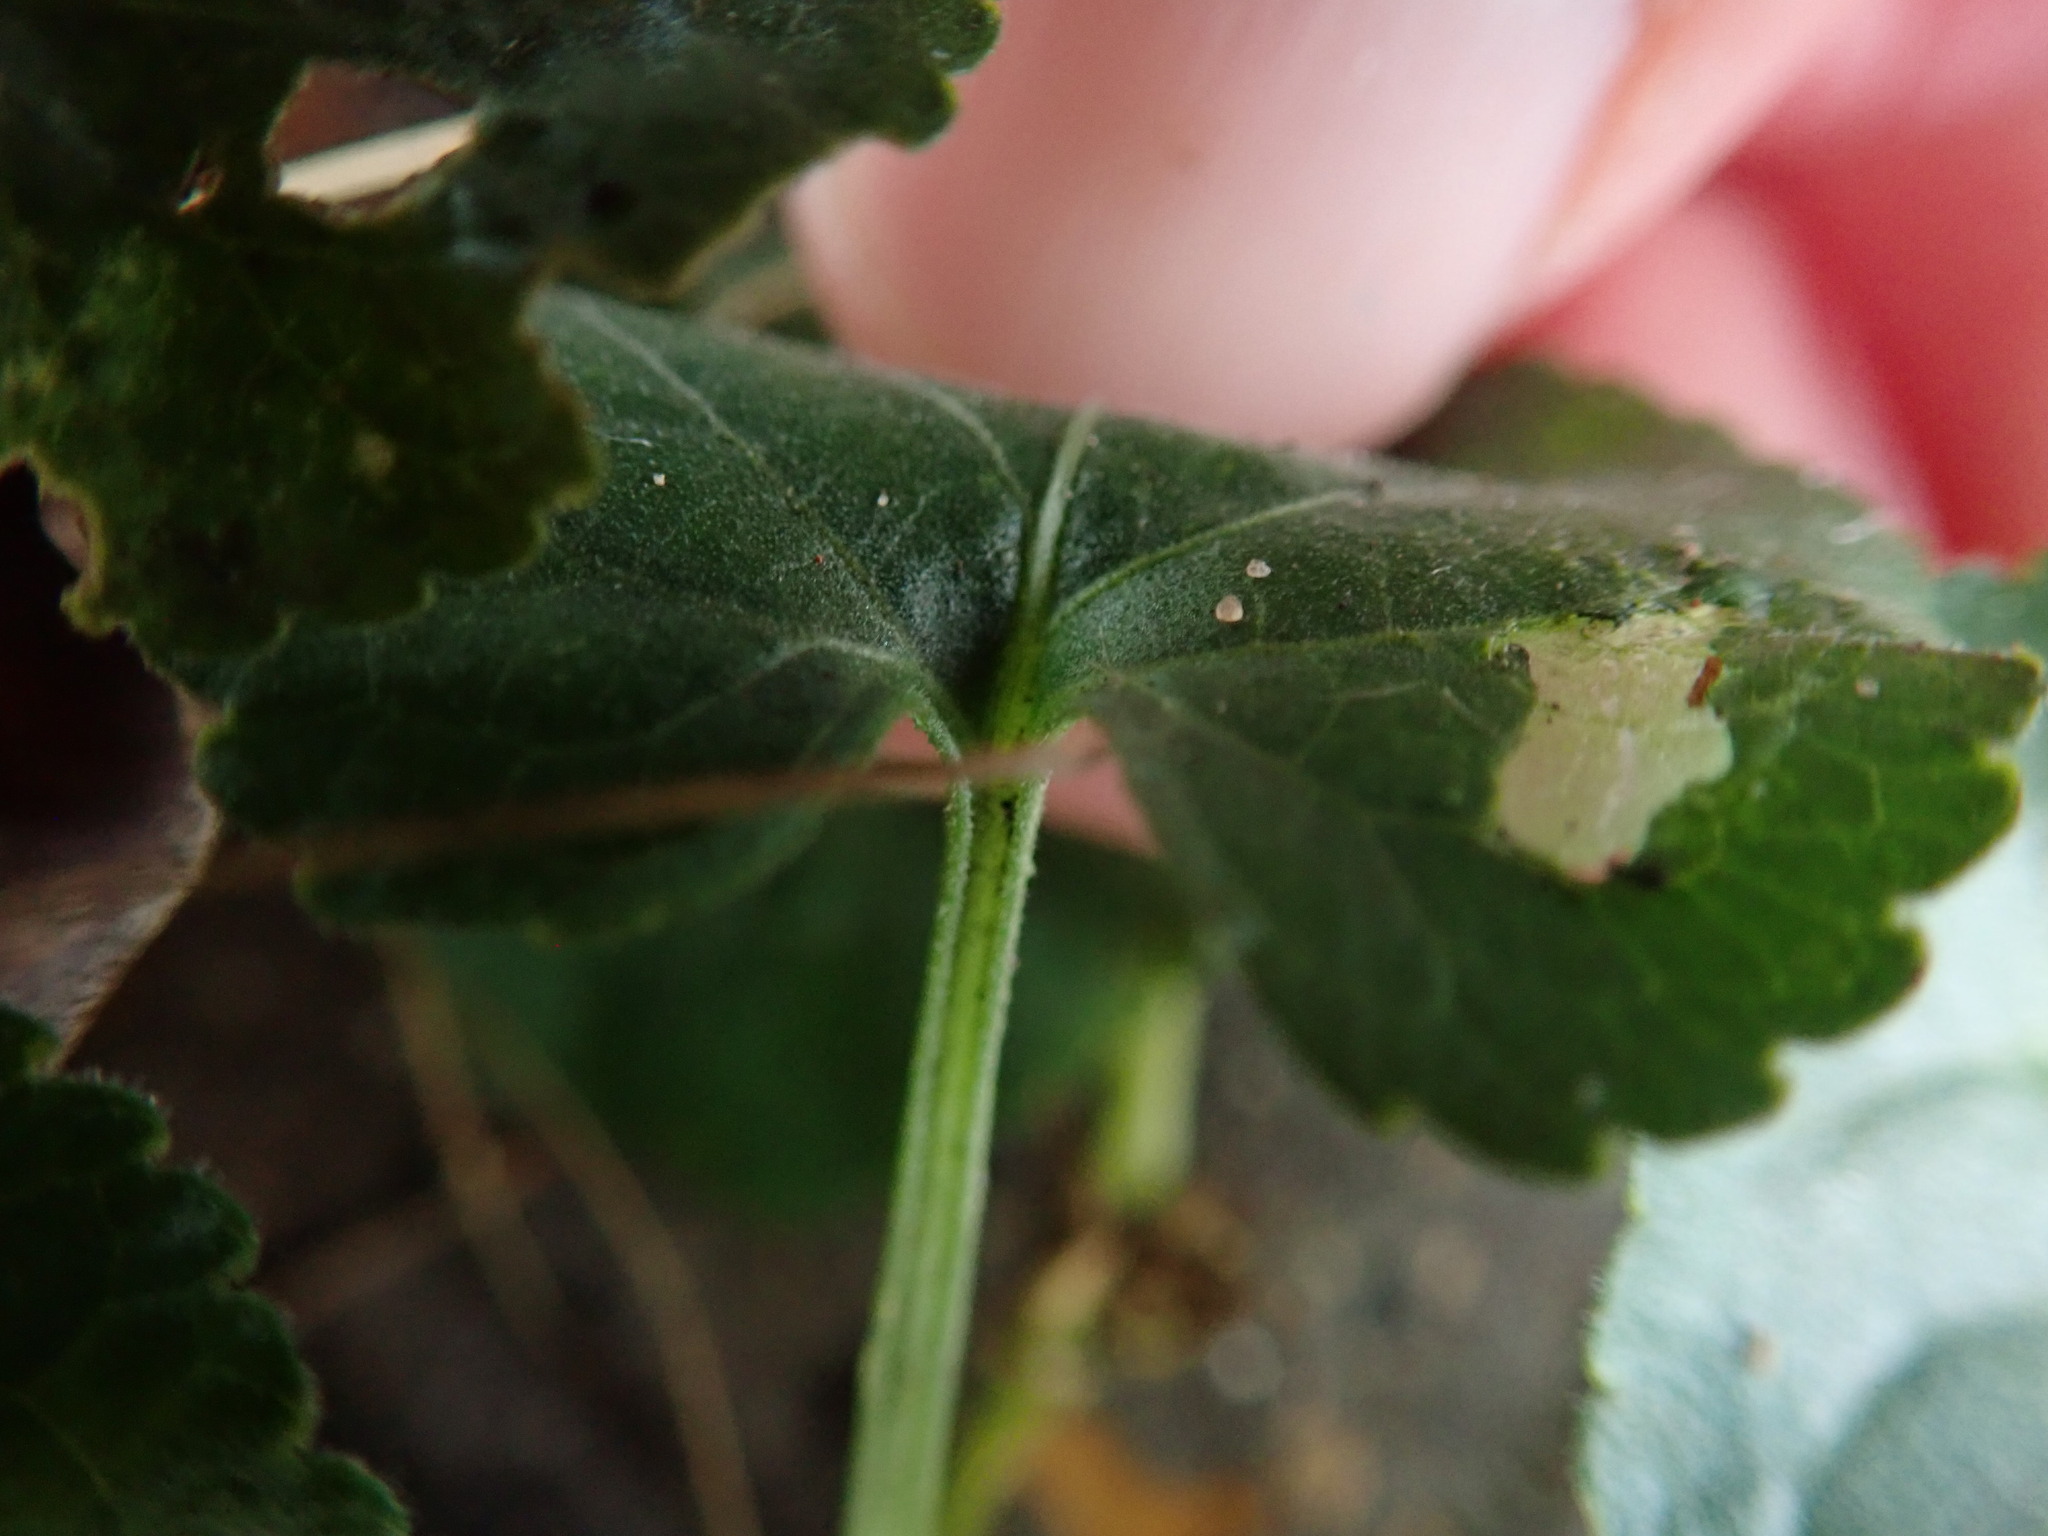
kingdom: Plantae
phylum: Tracheophyta
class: Magnoliopsida
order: Malpighiales
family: Violaceae
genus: Viola
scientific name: Viola odorata
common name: Sweet violet
